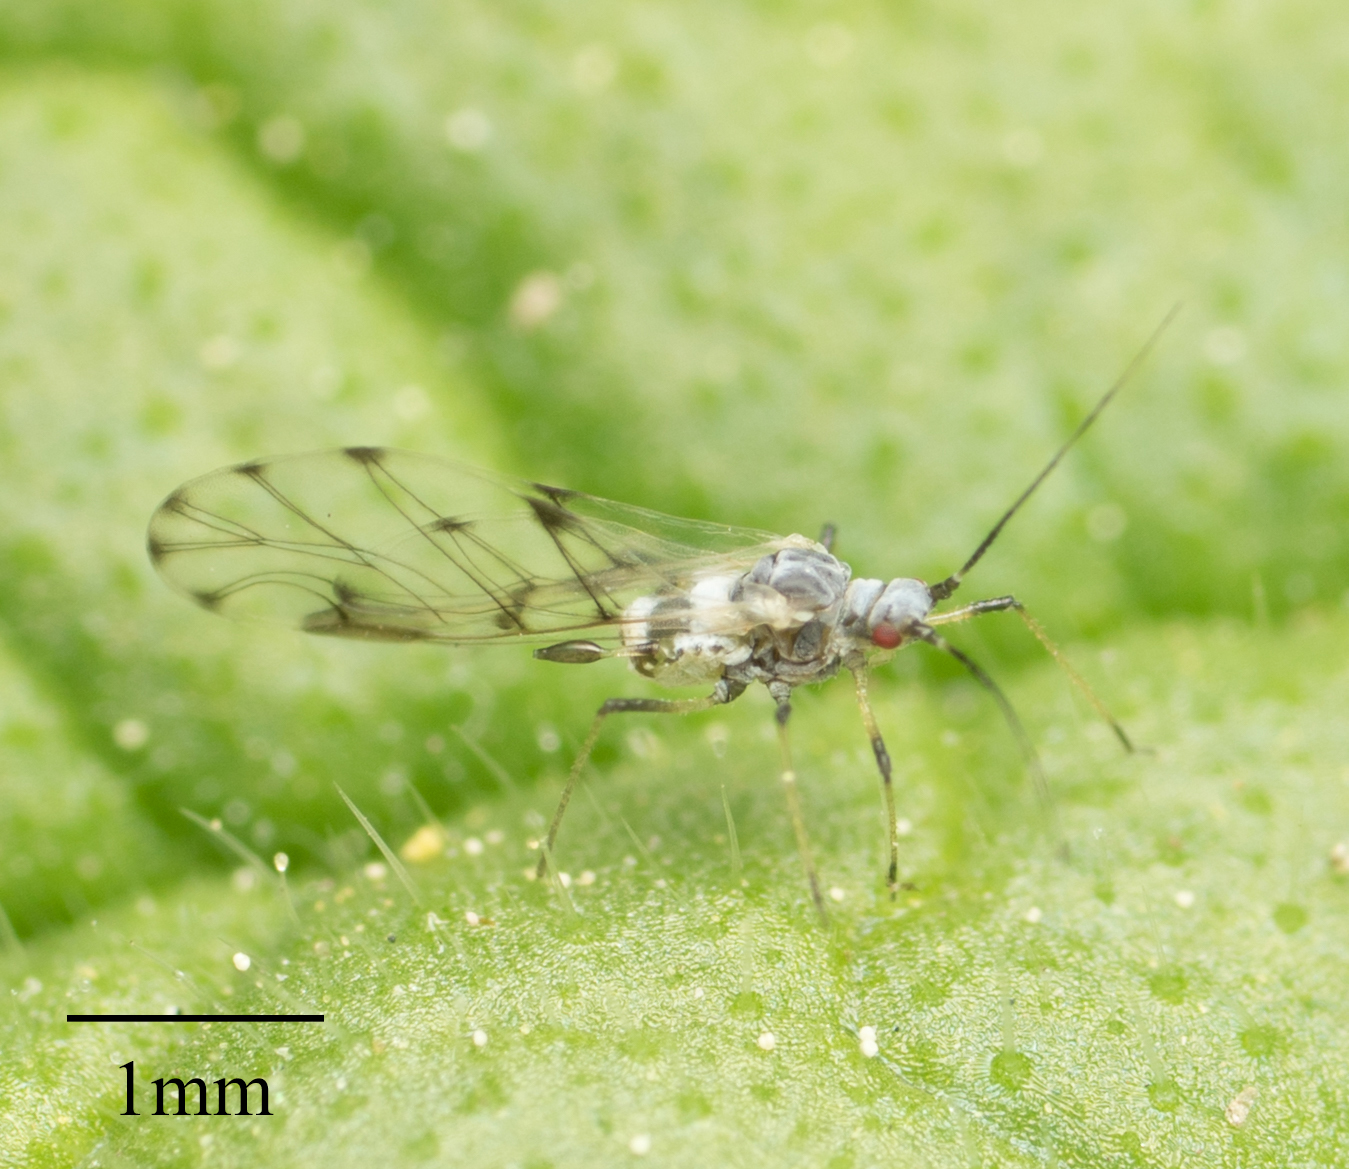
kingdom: Animalia
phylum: Arthropoda
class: Insecta
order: Hemiptera
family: Aphididae
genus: Eucarazzia
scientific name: Eucarazzia elegans
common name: Mint aphid
